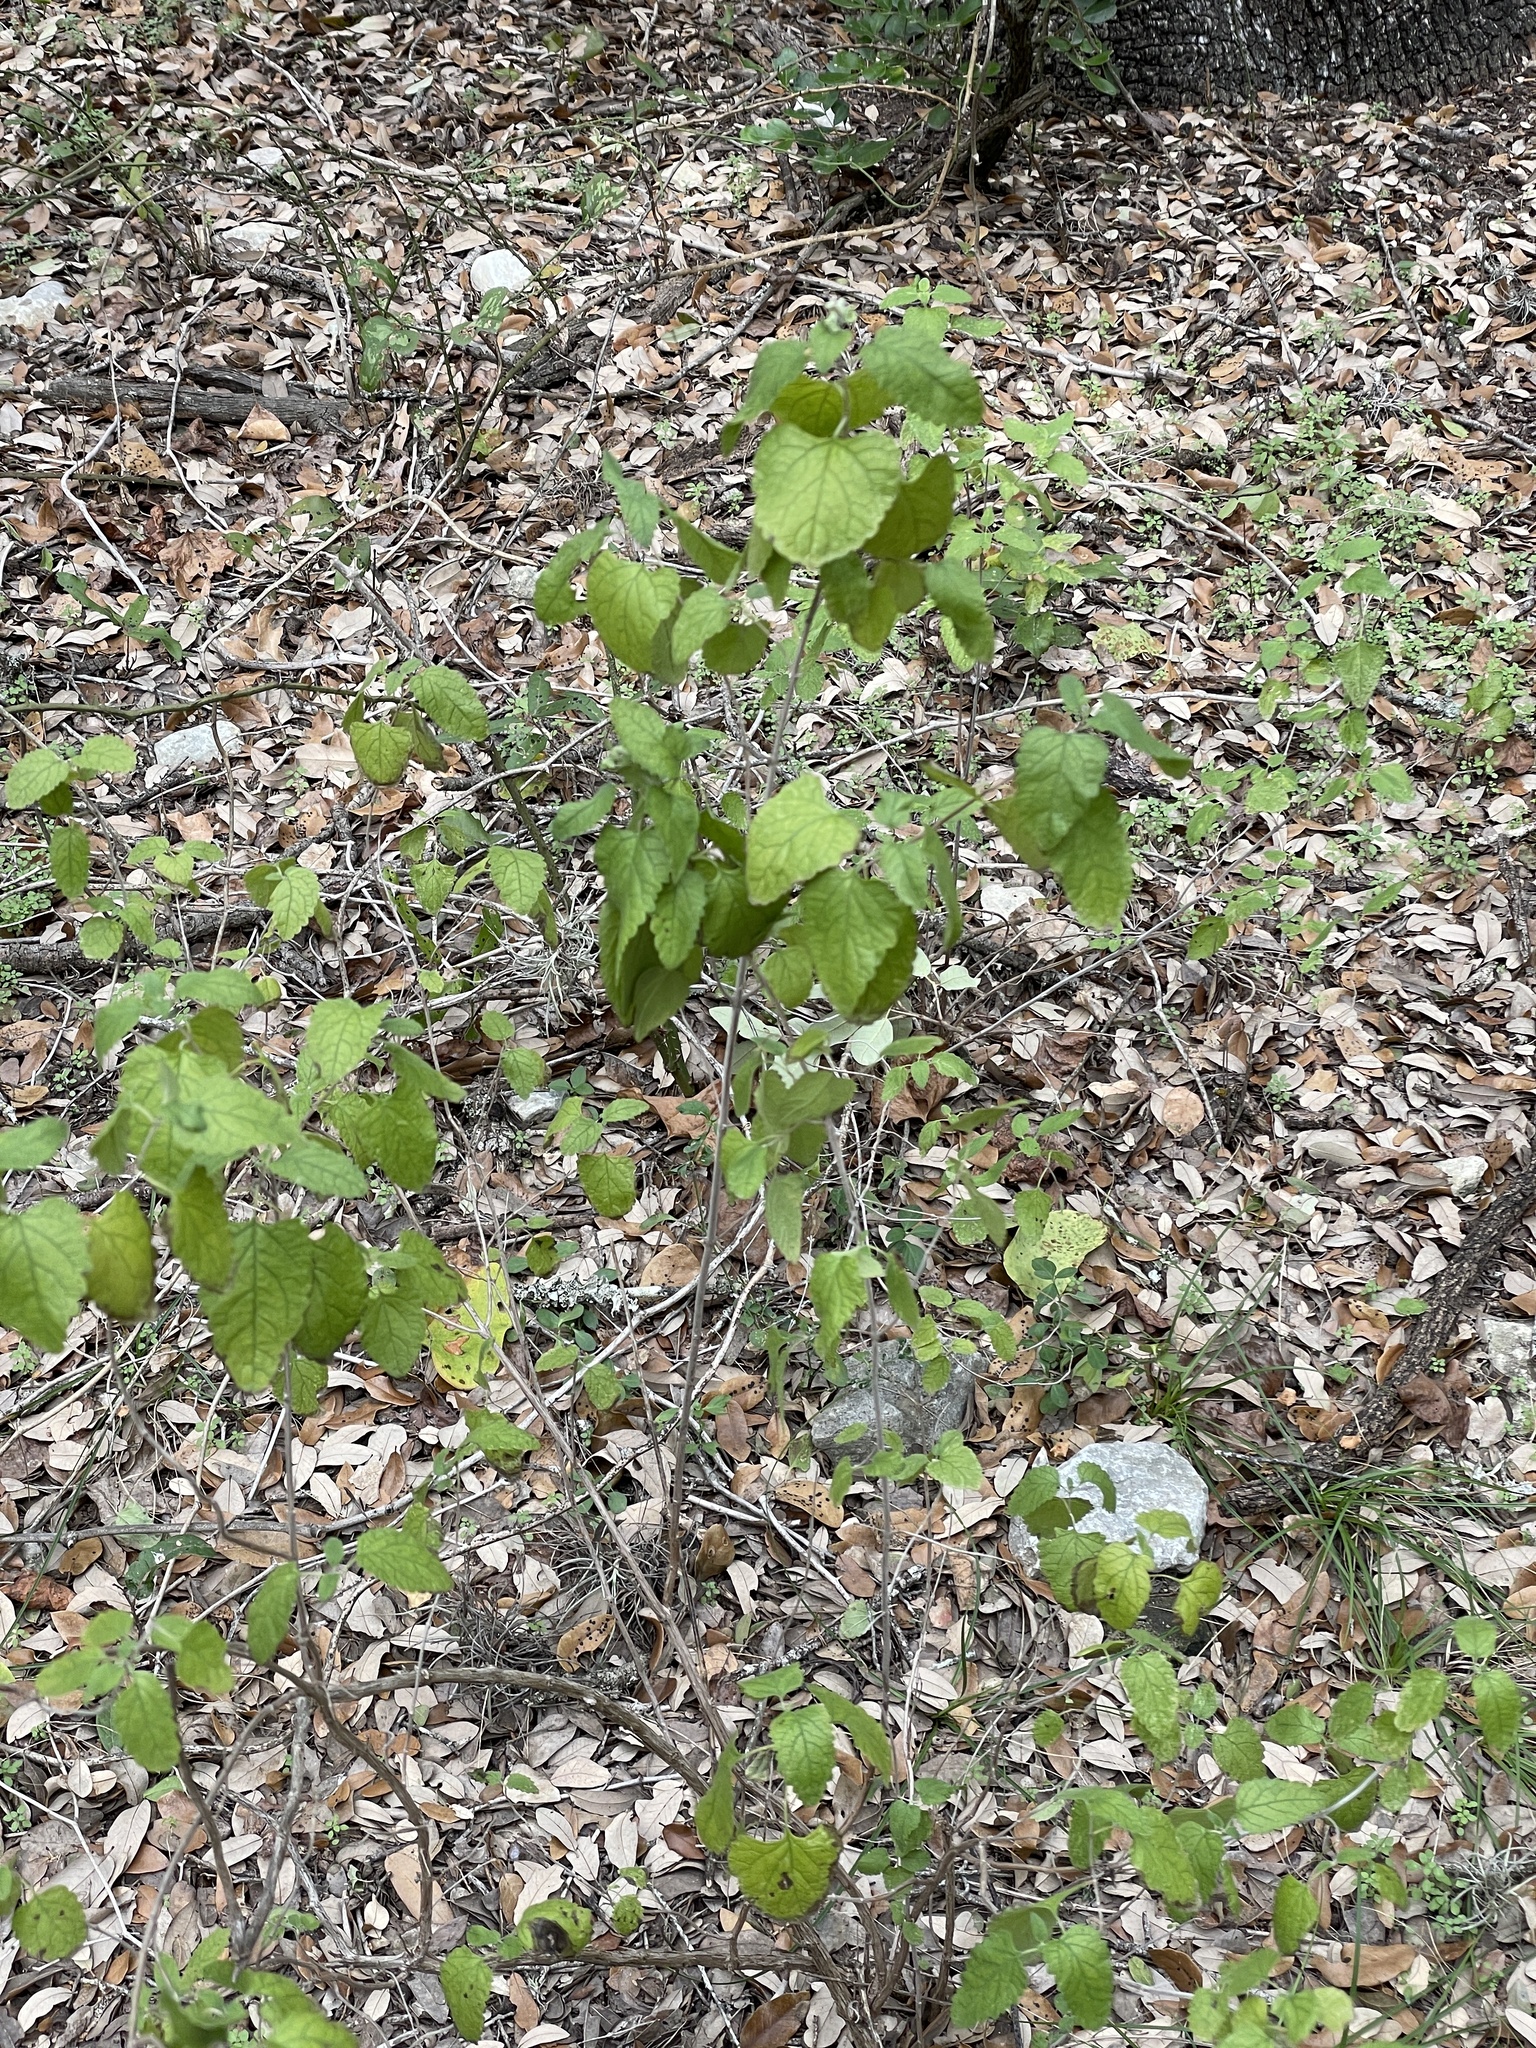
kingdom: Plantae
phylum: Tracheophyta
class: Magnoliopsida
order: Lamiales
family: Lamiaceae
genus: Salvia
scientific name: Salvia ballotiflora
